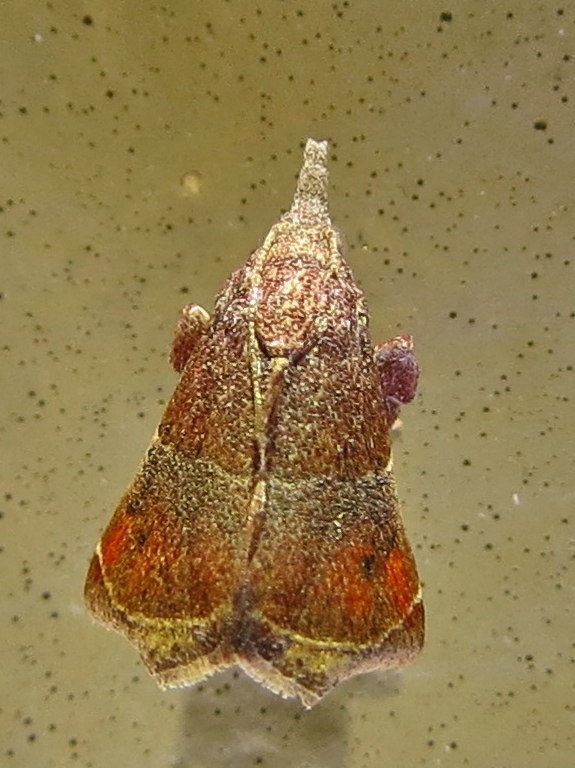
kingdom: Animalia
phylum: Arthropoda
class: Insecta
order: Lepidoptera
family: Pyralidae
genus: Streptopalpia
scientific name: Streptopalpia minusculalis
